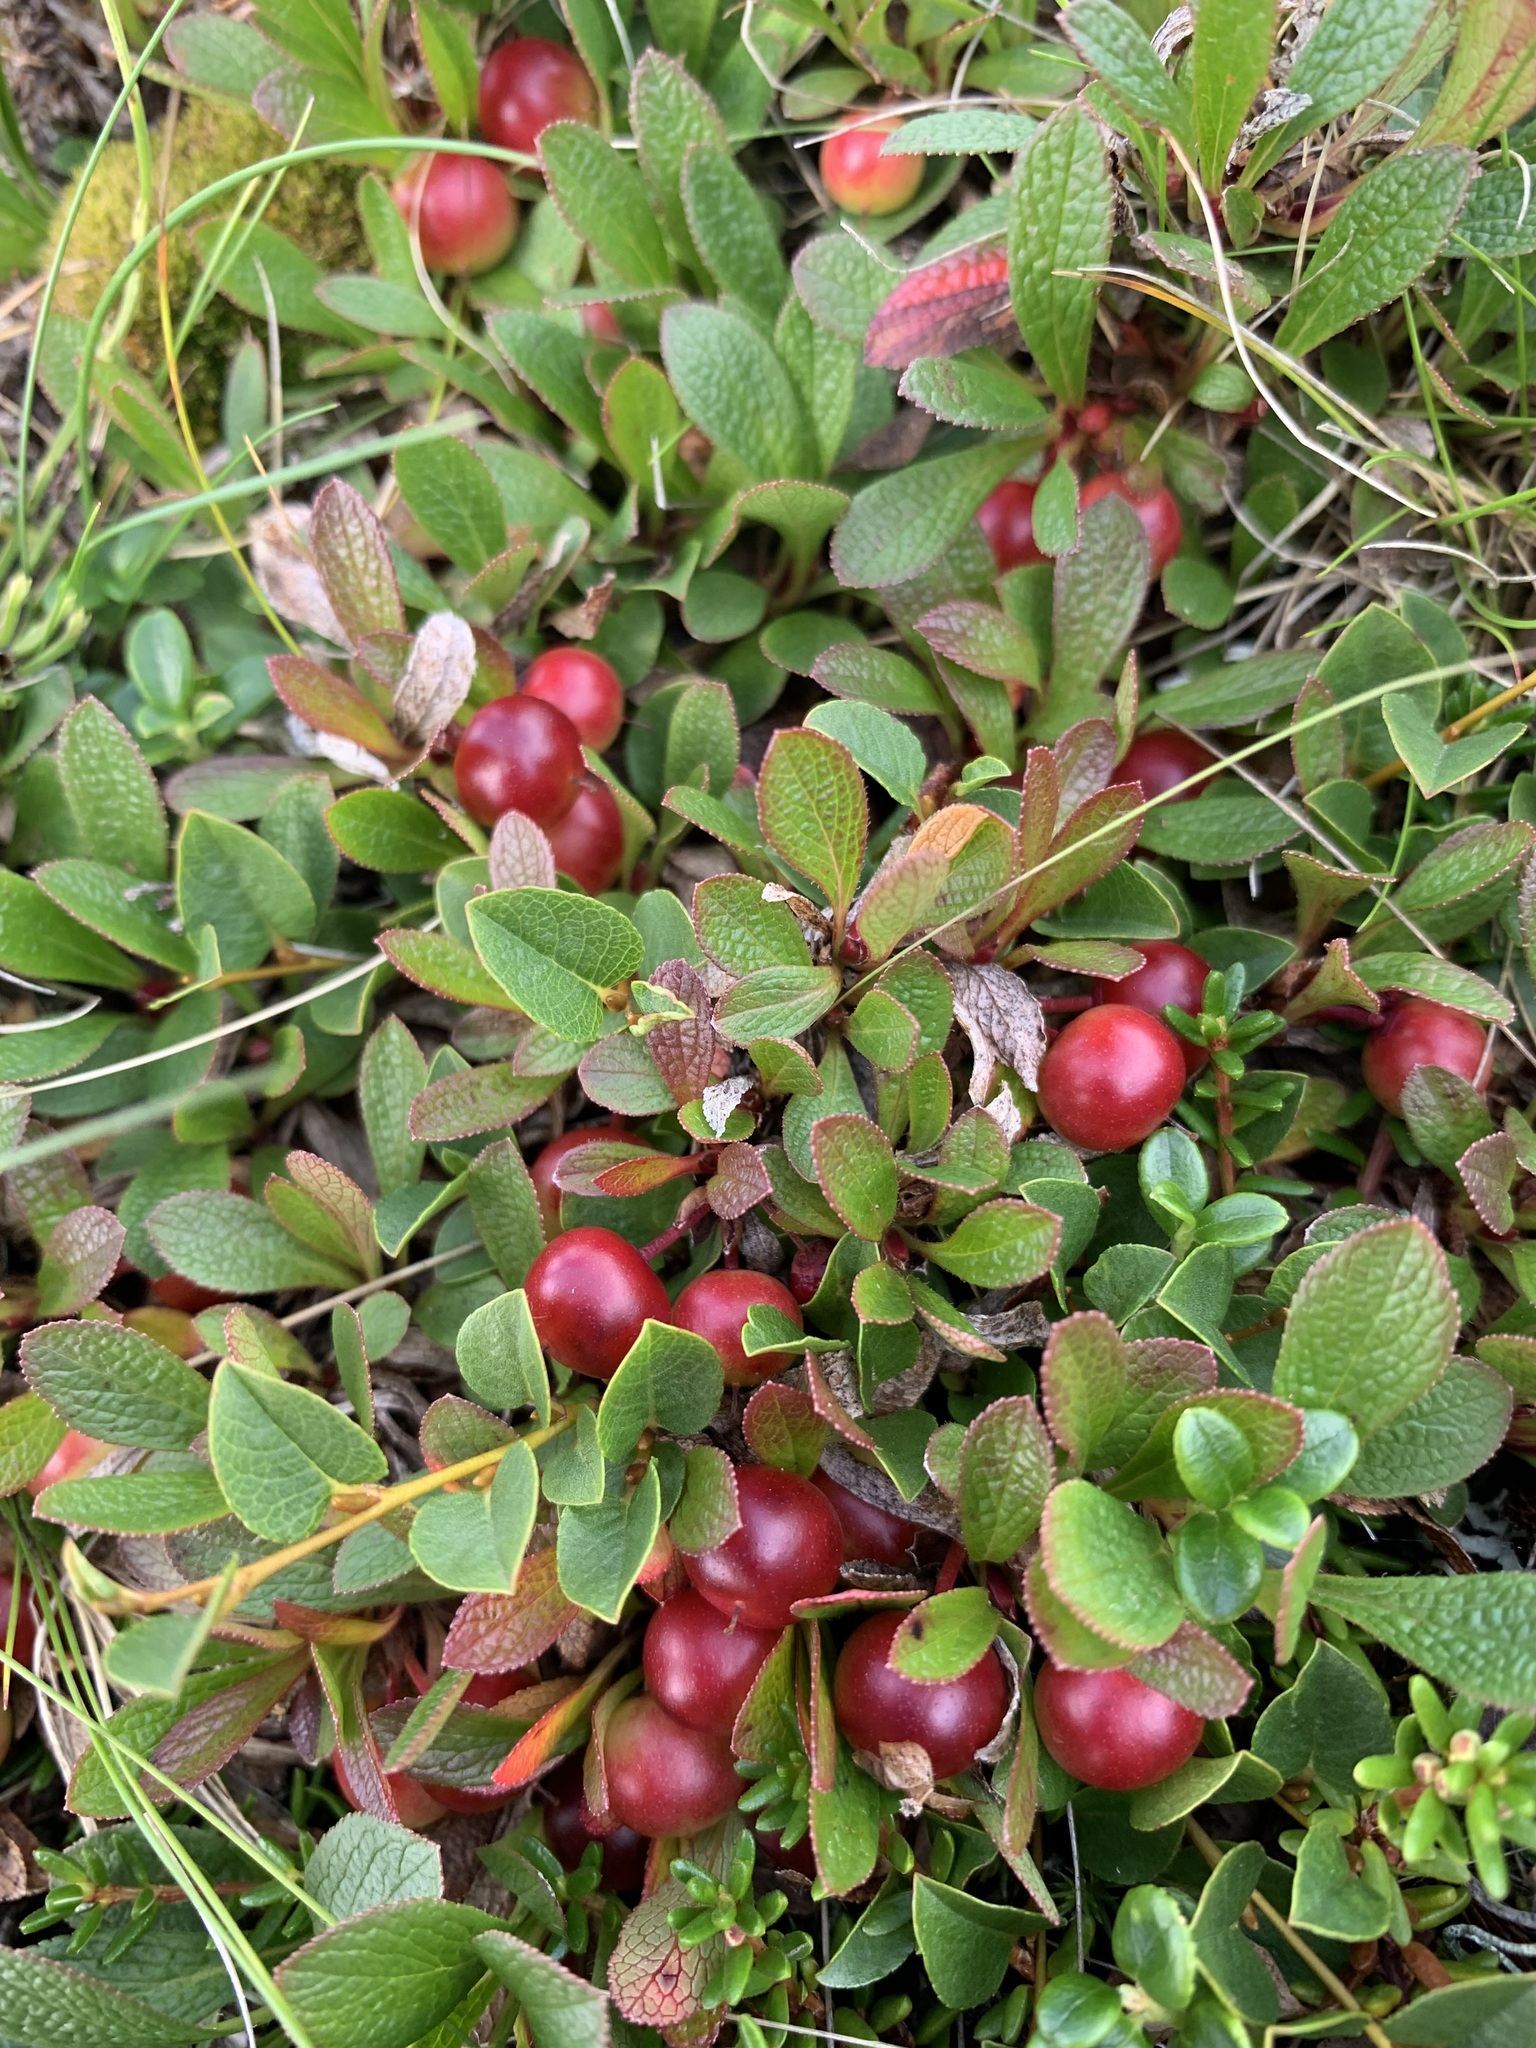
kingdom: Plantae
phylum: Tracheophyta
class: Magnoliopsida
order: Ericales
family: Ericaceae
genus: Arctostaphylos
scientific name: Arctostaphylos alpinus
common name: Alpine bearberry
